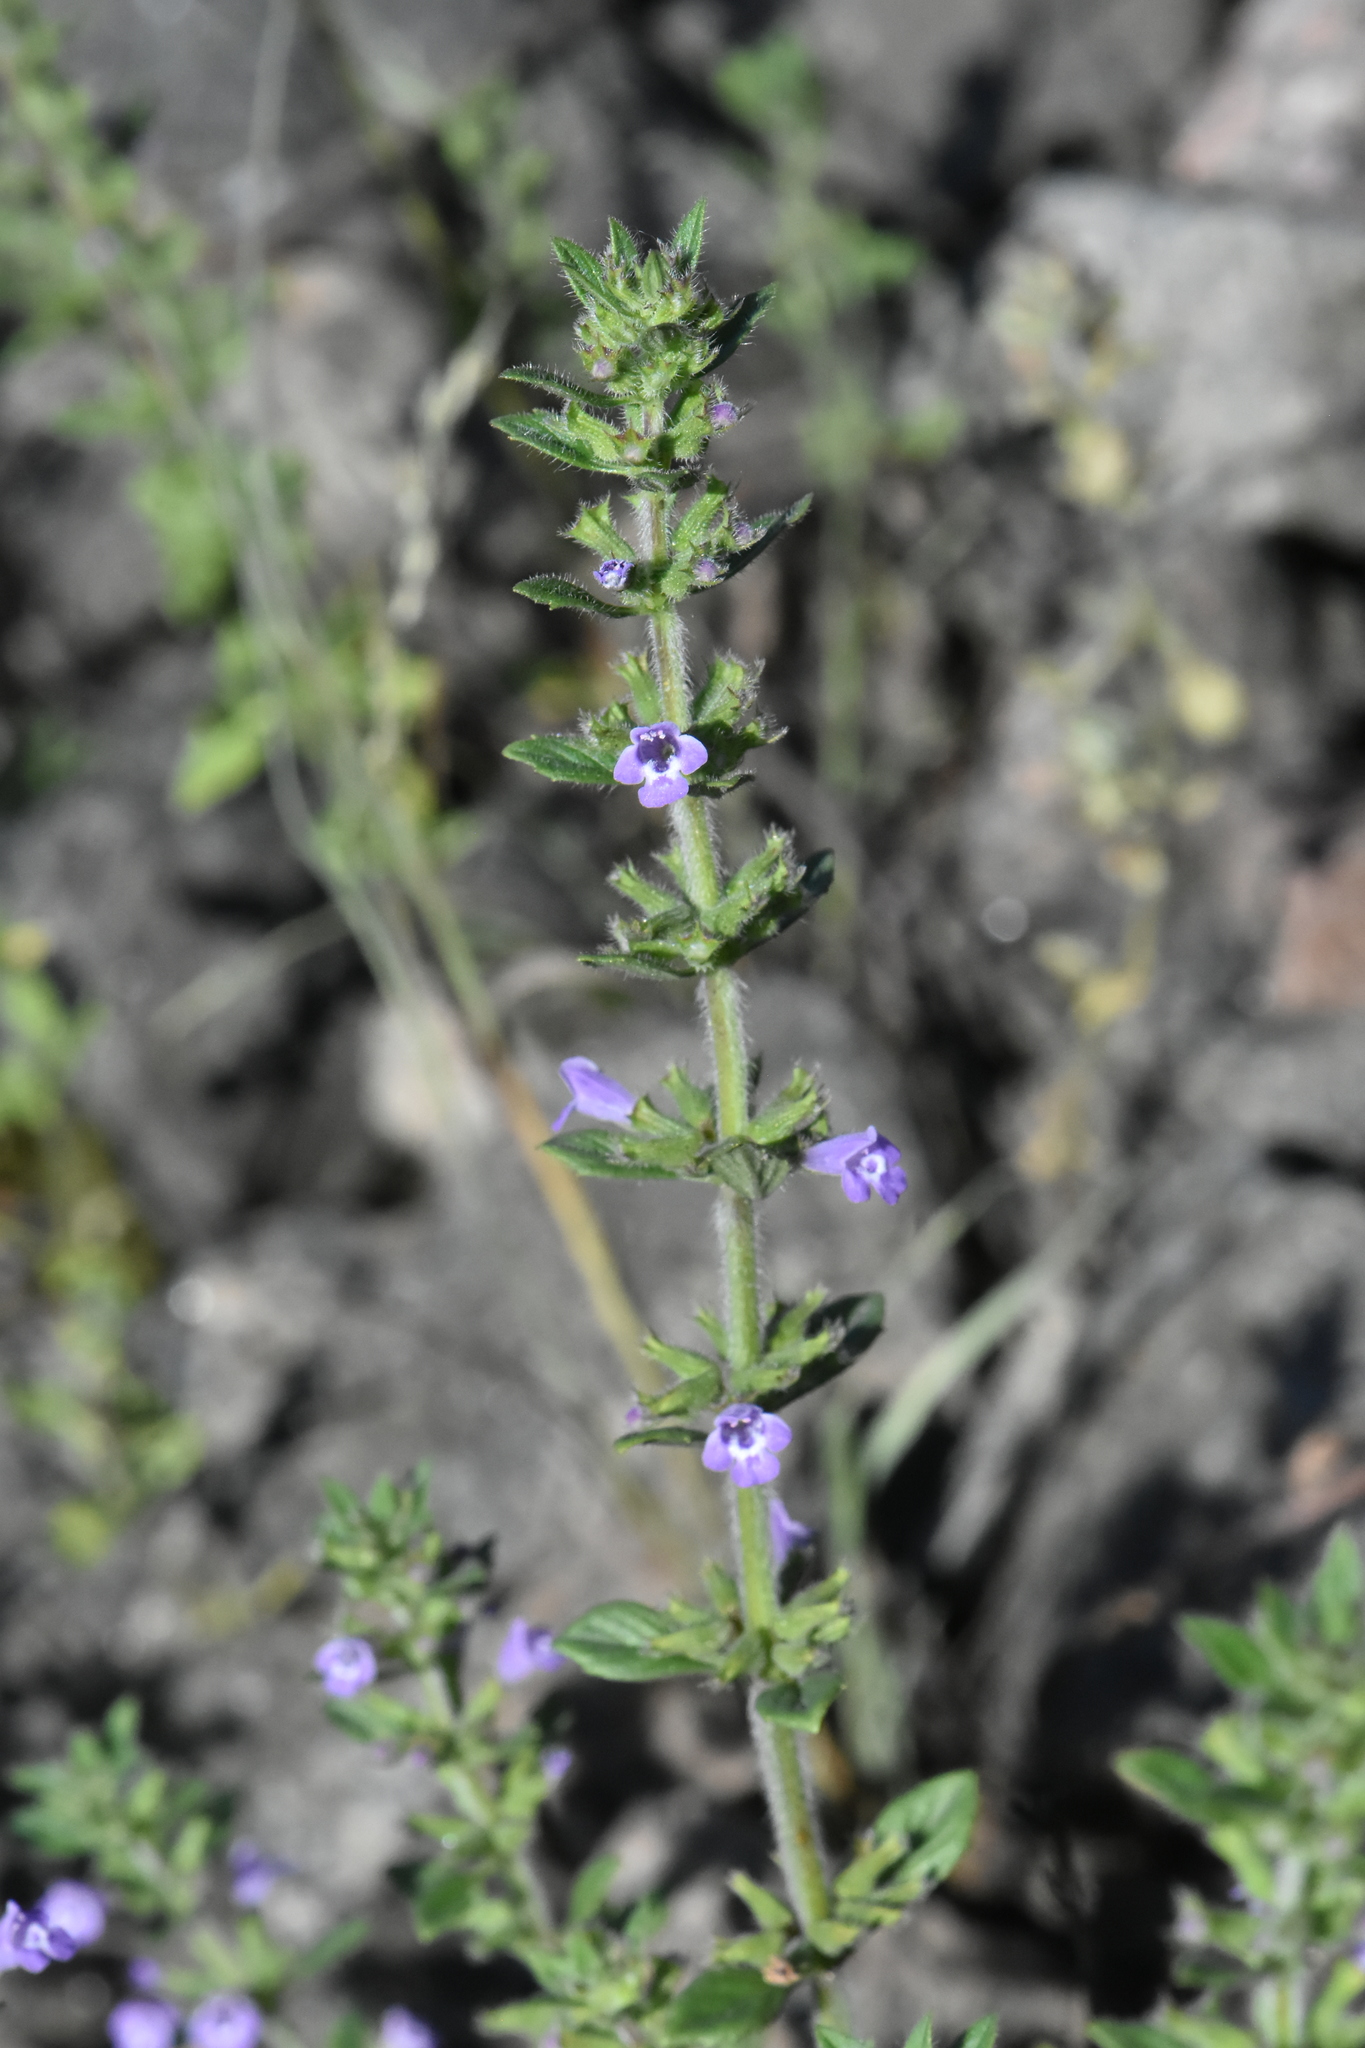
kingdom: Plantae
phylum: Tracheophyta
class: Magnoliopsida
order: Lamiales
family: Lamiaceae
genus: Clinopodium
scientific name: Clinopodium acinos
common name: Basil thyme
